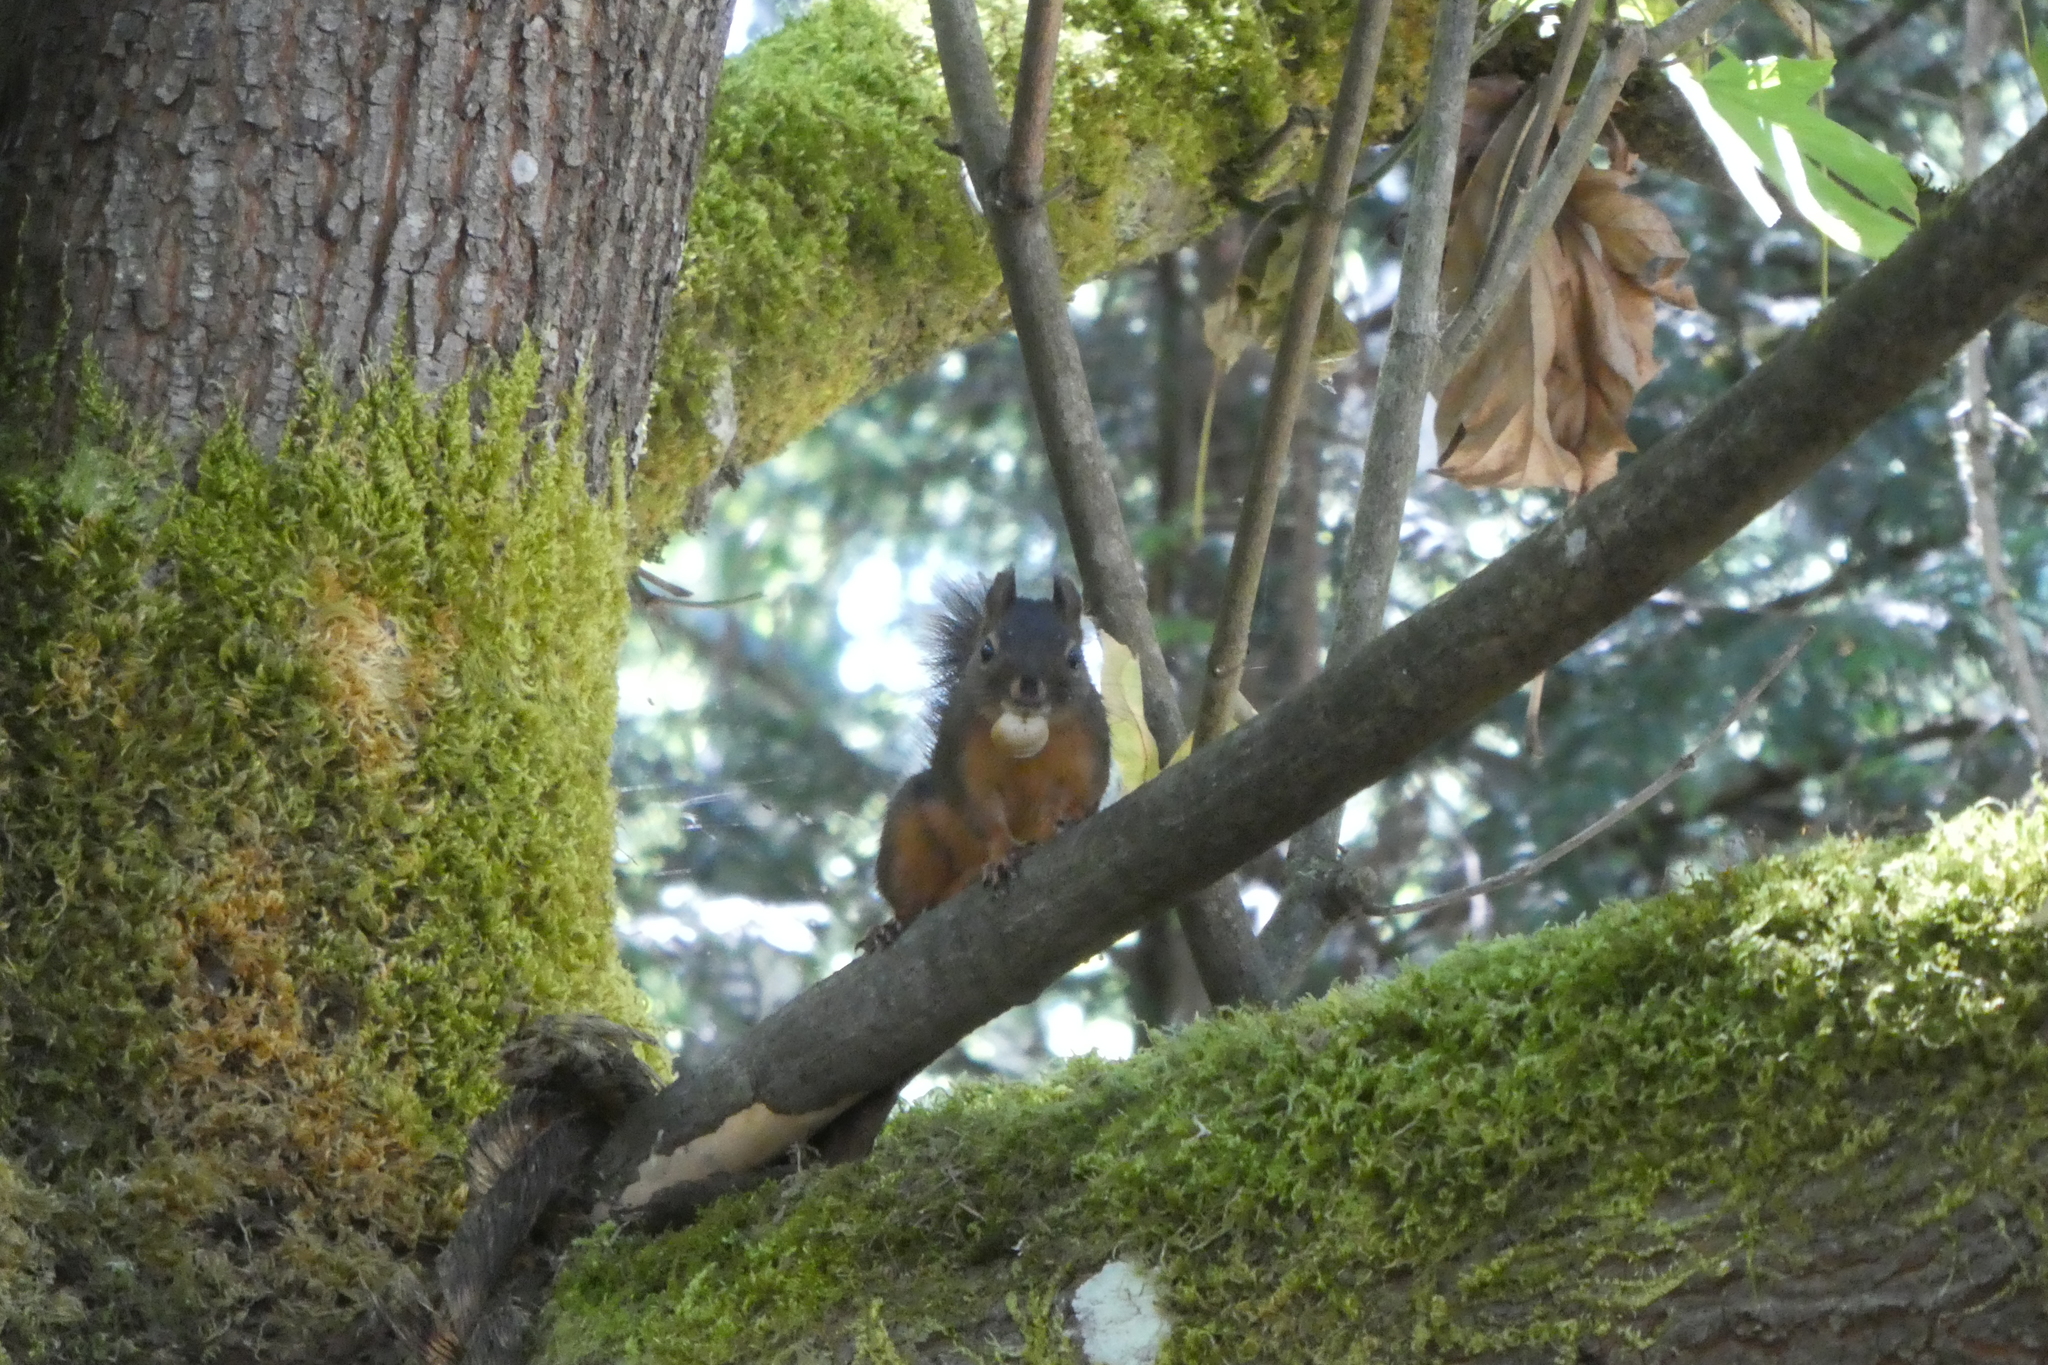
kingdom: Animalia
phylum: Chordata
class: Mammalia
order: Rodentia
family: Sciuridae
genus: Tamiasciurus
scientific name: Tamiasciurus douglasii
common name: Douglas's squirrel
